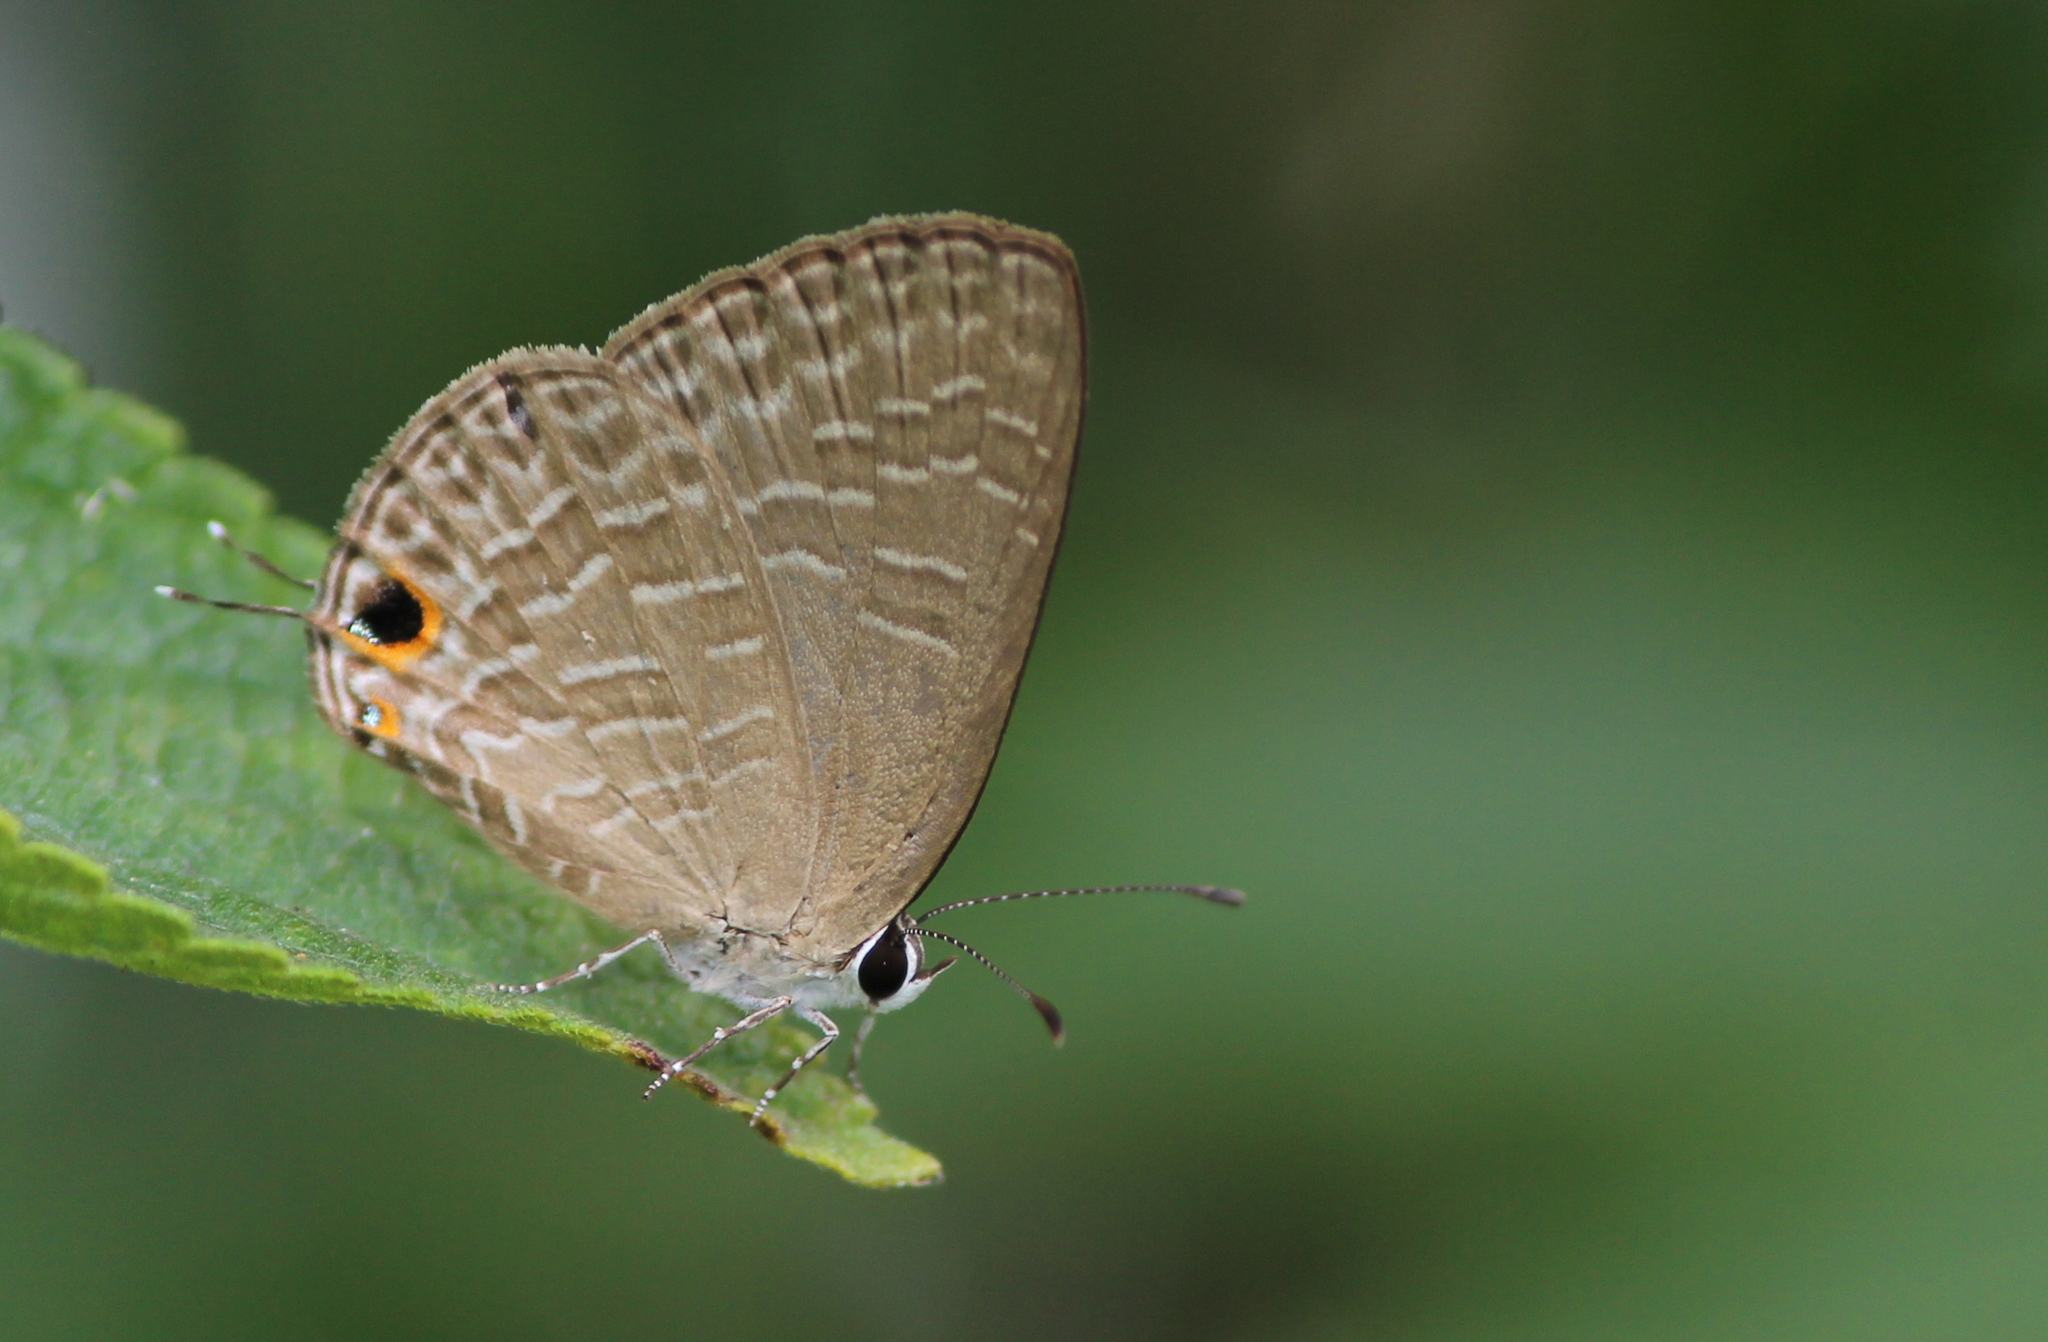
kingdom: Animalia
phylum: Arthropoda
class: Insecta
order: Lepidoptera
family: Lycaenidae
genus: Jamides
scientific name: Jamides bochus
